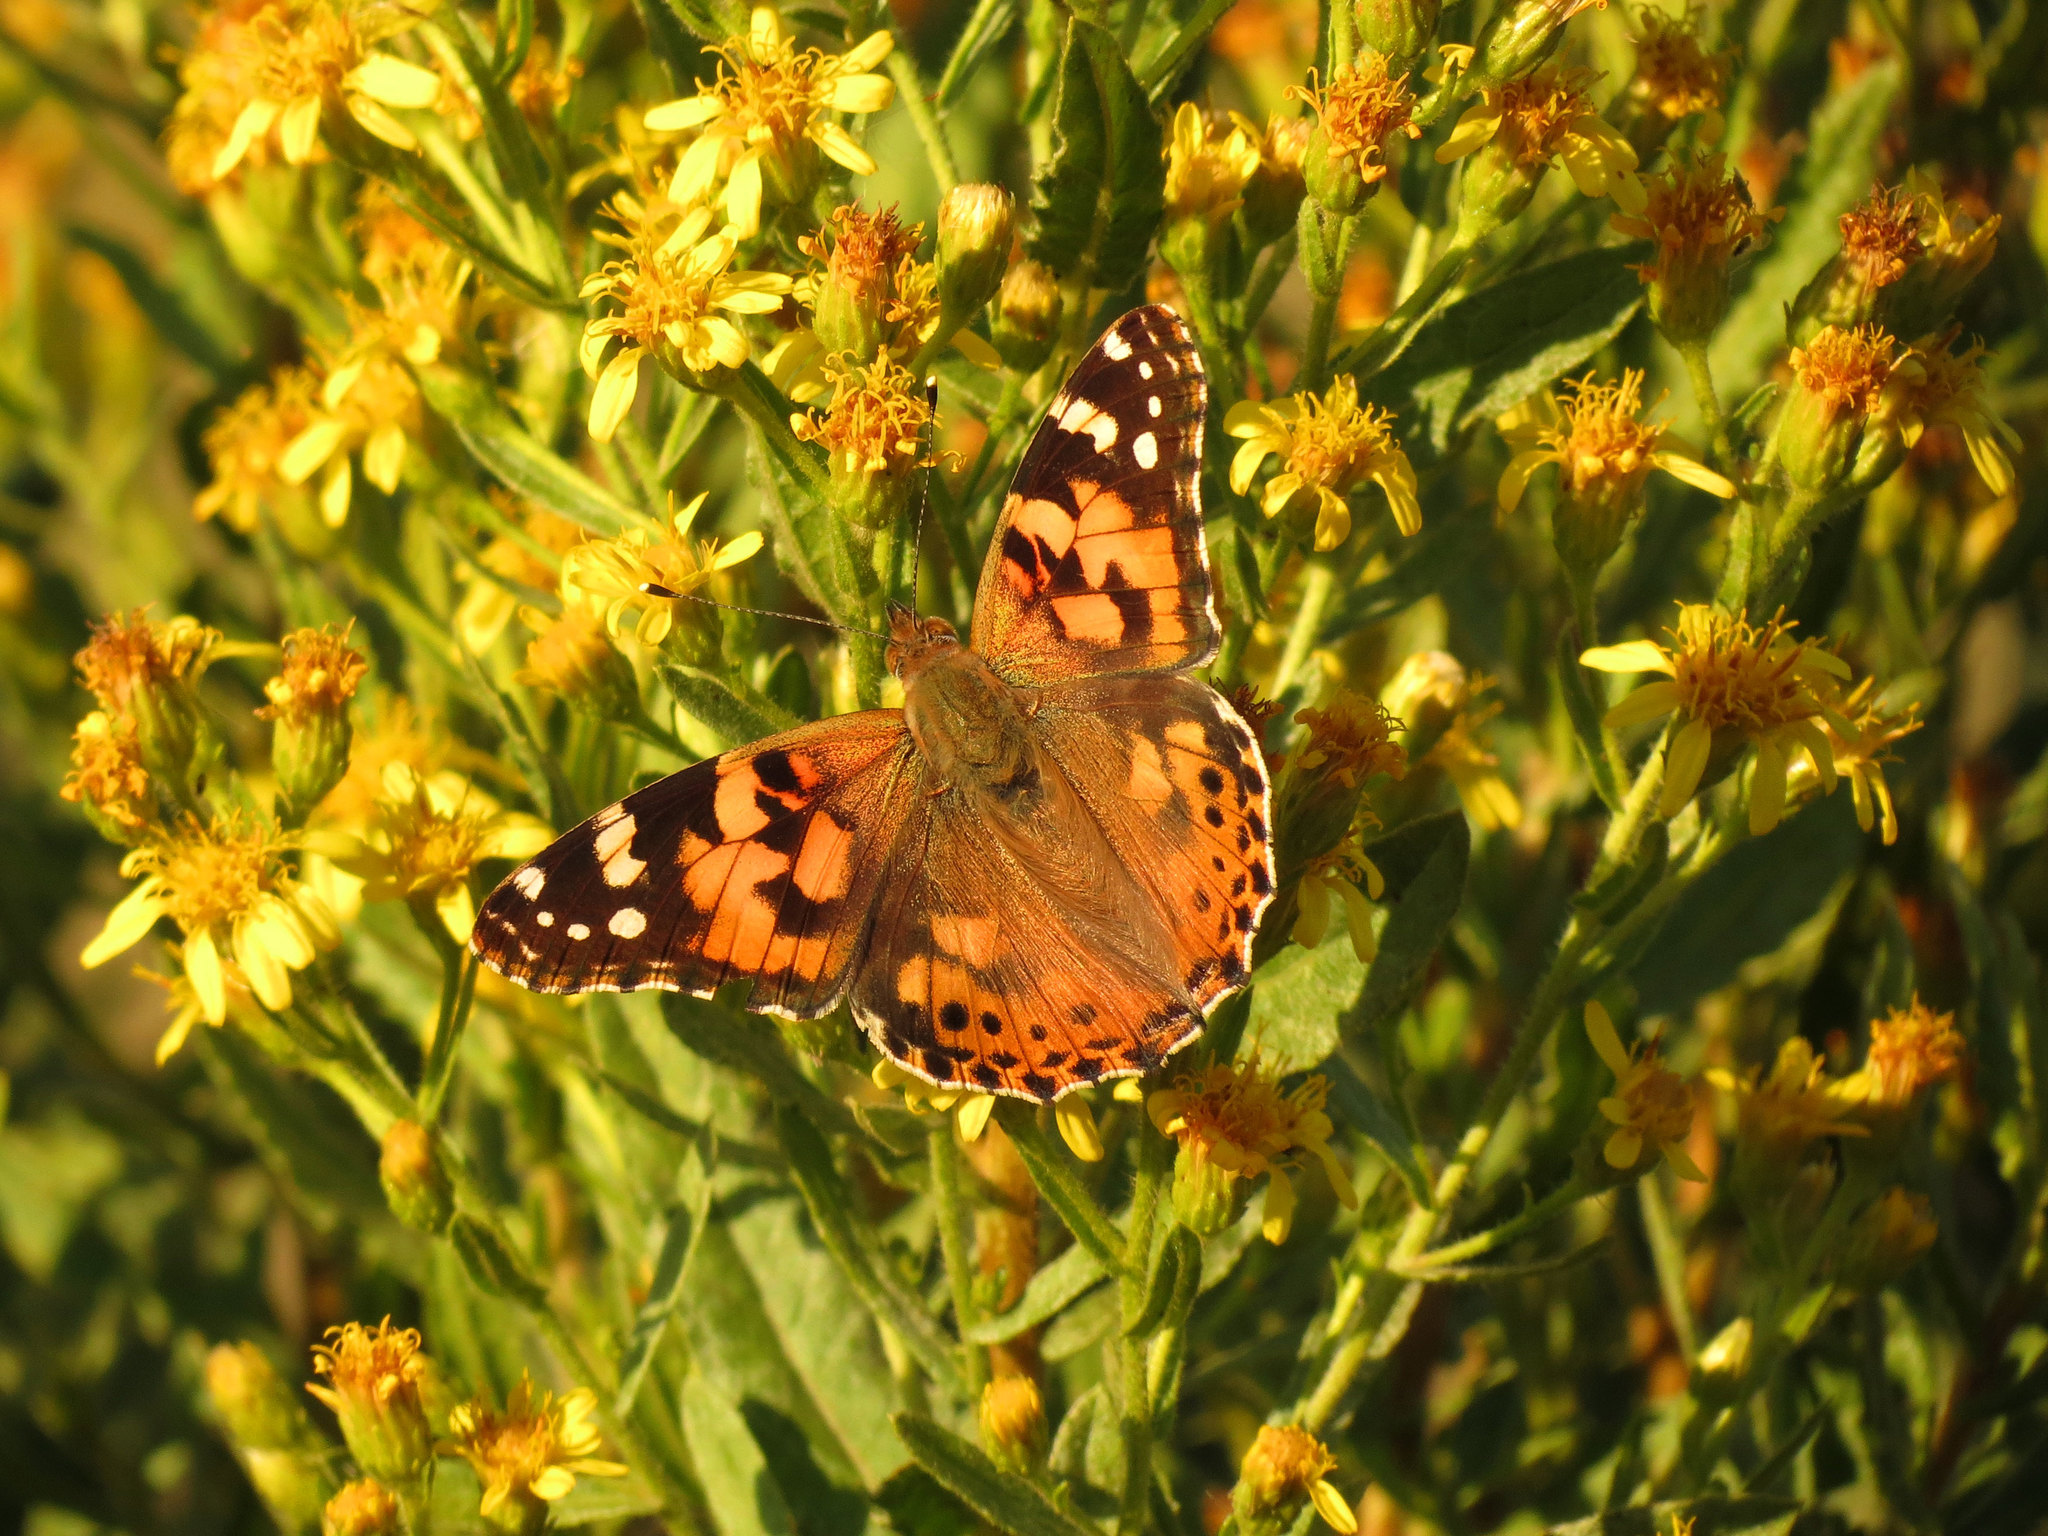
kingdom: Animalia
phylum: Arthropoda
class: Insecta
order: Lepidoptera
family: Nymphalidae
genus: Vanessa
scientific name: Vanessa cardui
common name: Painted lady
